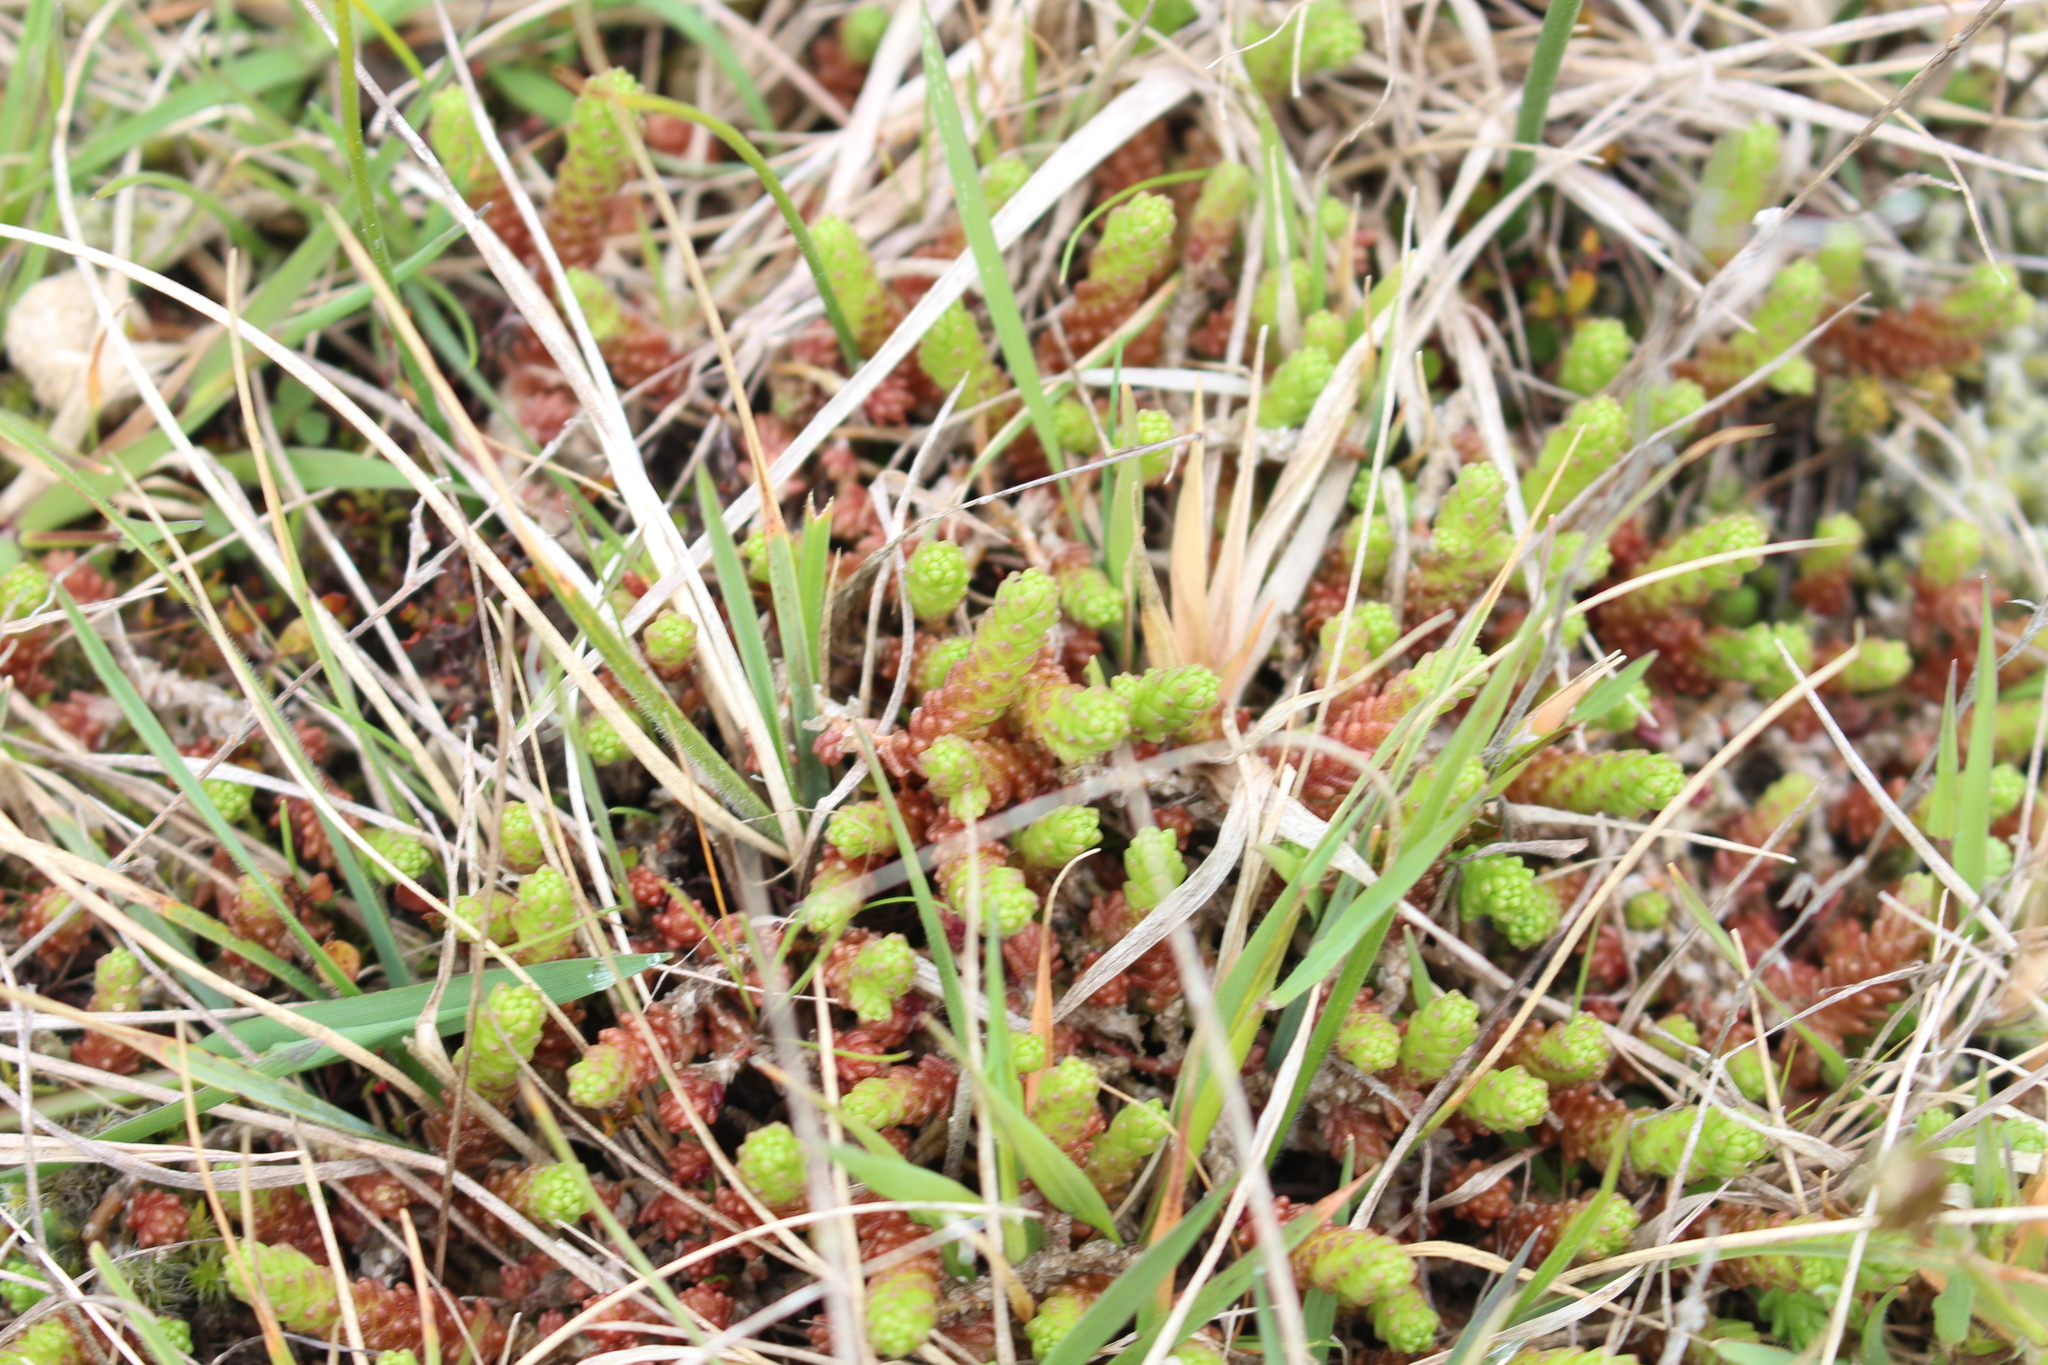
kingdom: Plantae
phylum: Tracheophyta
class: Magnoliopsida
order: Saxifragales
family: Crassulaceae
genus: Sedum
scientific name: Sedum acre
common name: Biting stonecrop
